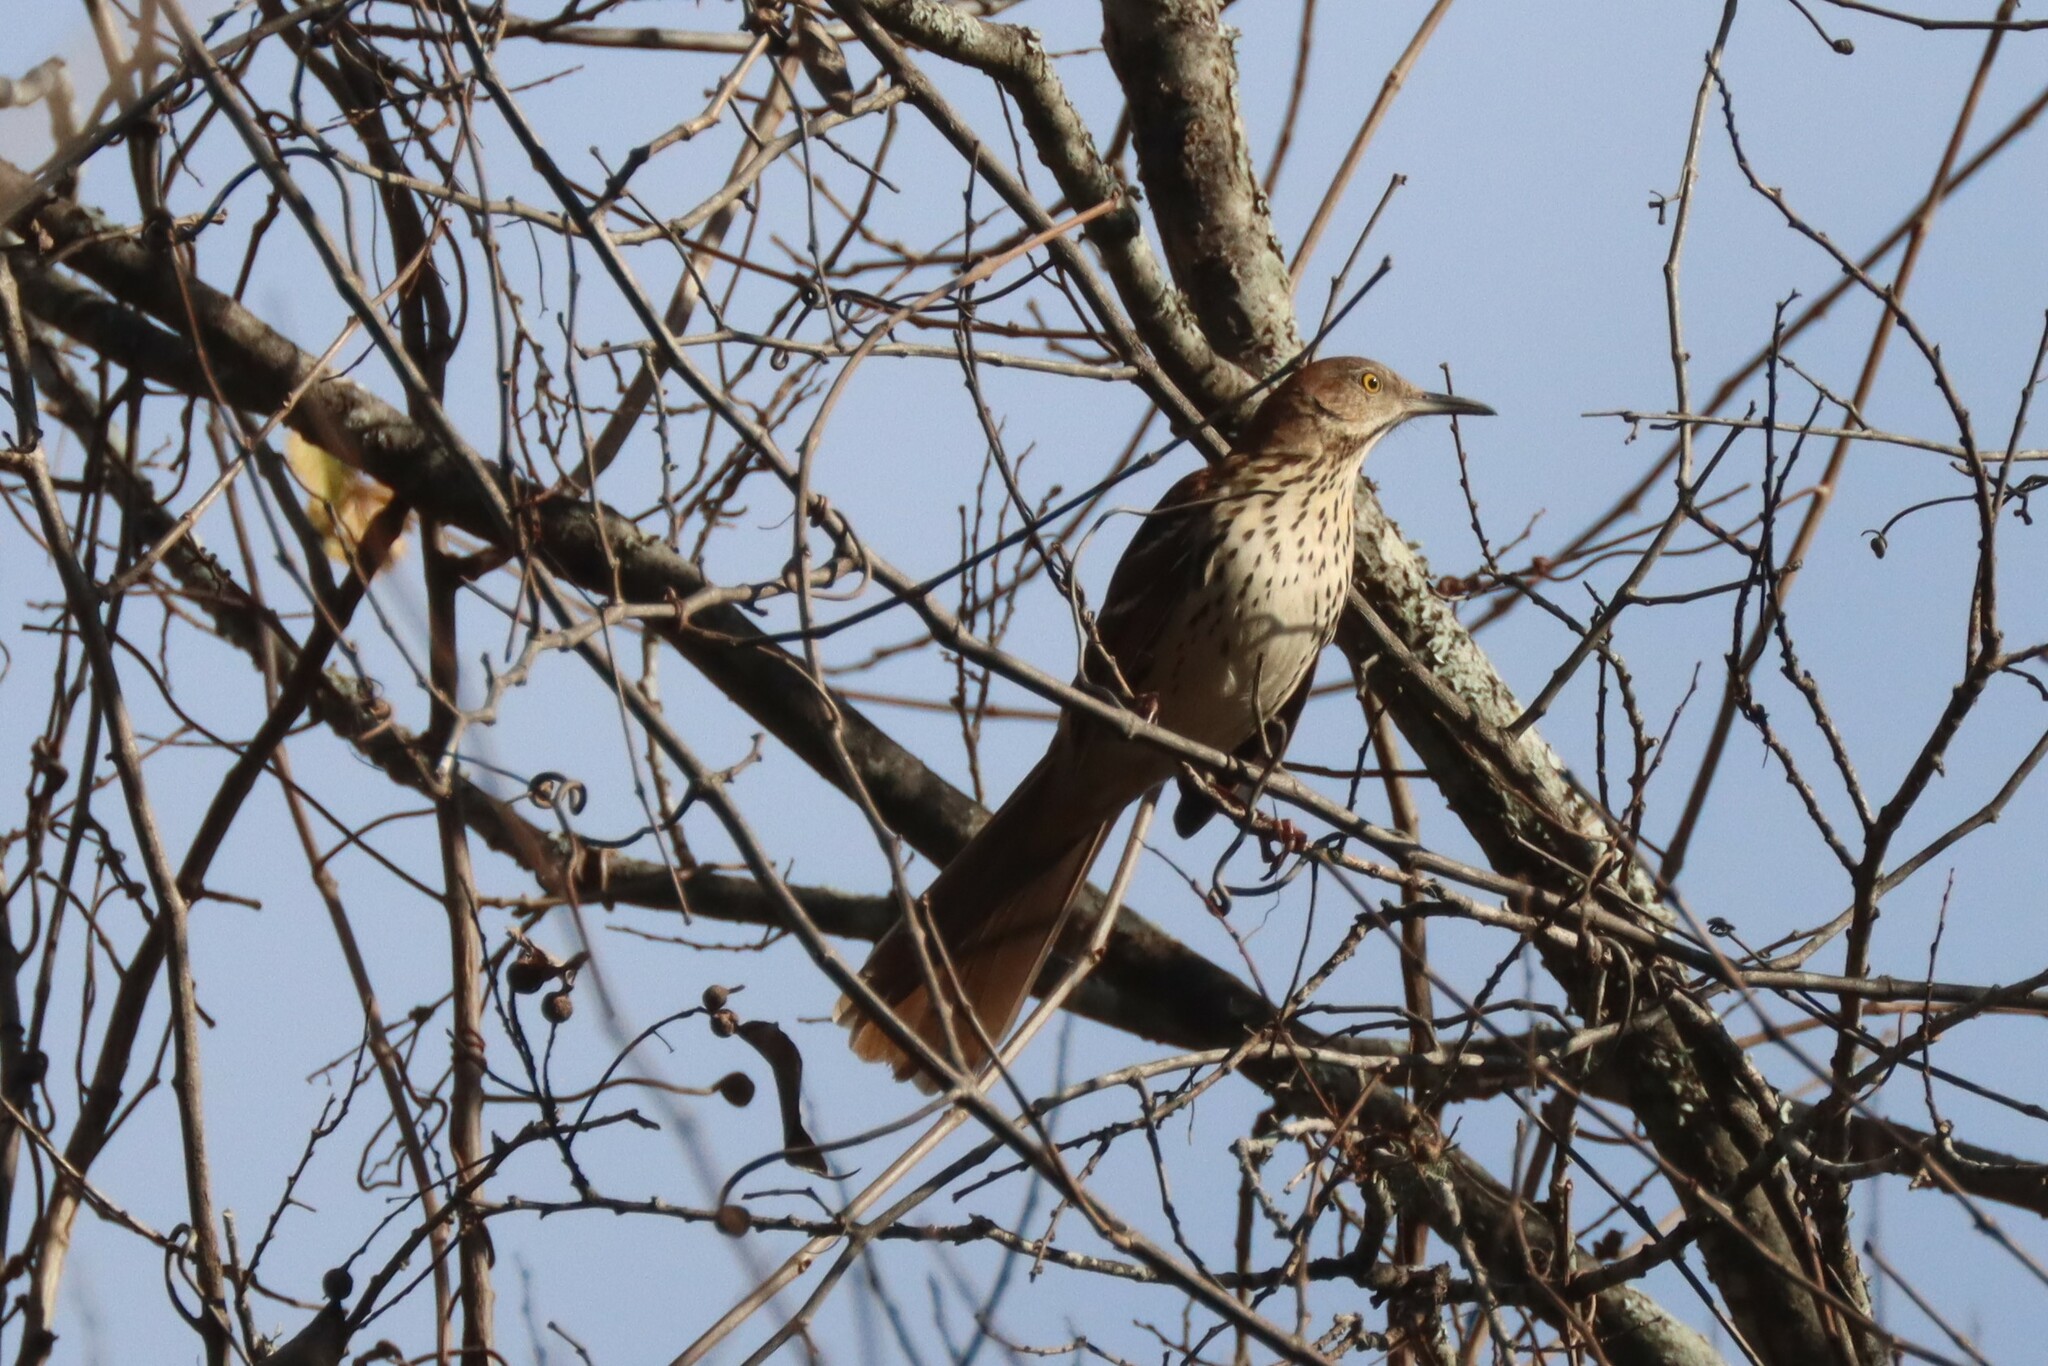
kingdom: Animalia
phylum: Chordata
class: Aves
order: Passeriformes
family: Mimidae
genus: Toxostoma
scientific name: Toxostoma rufum
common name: Brown thrasher
